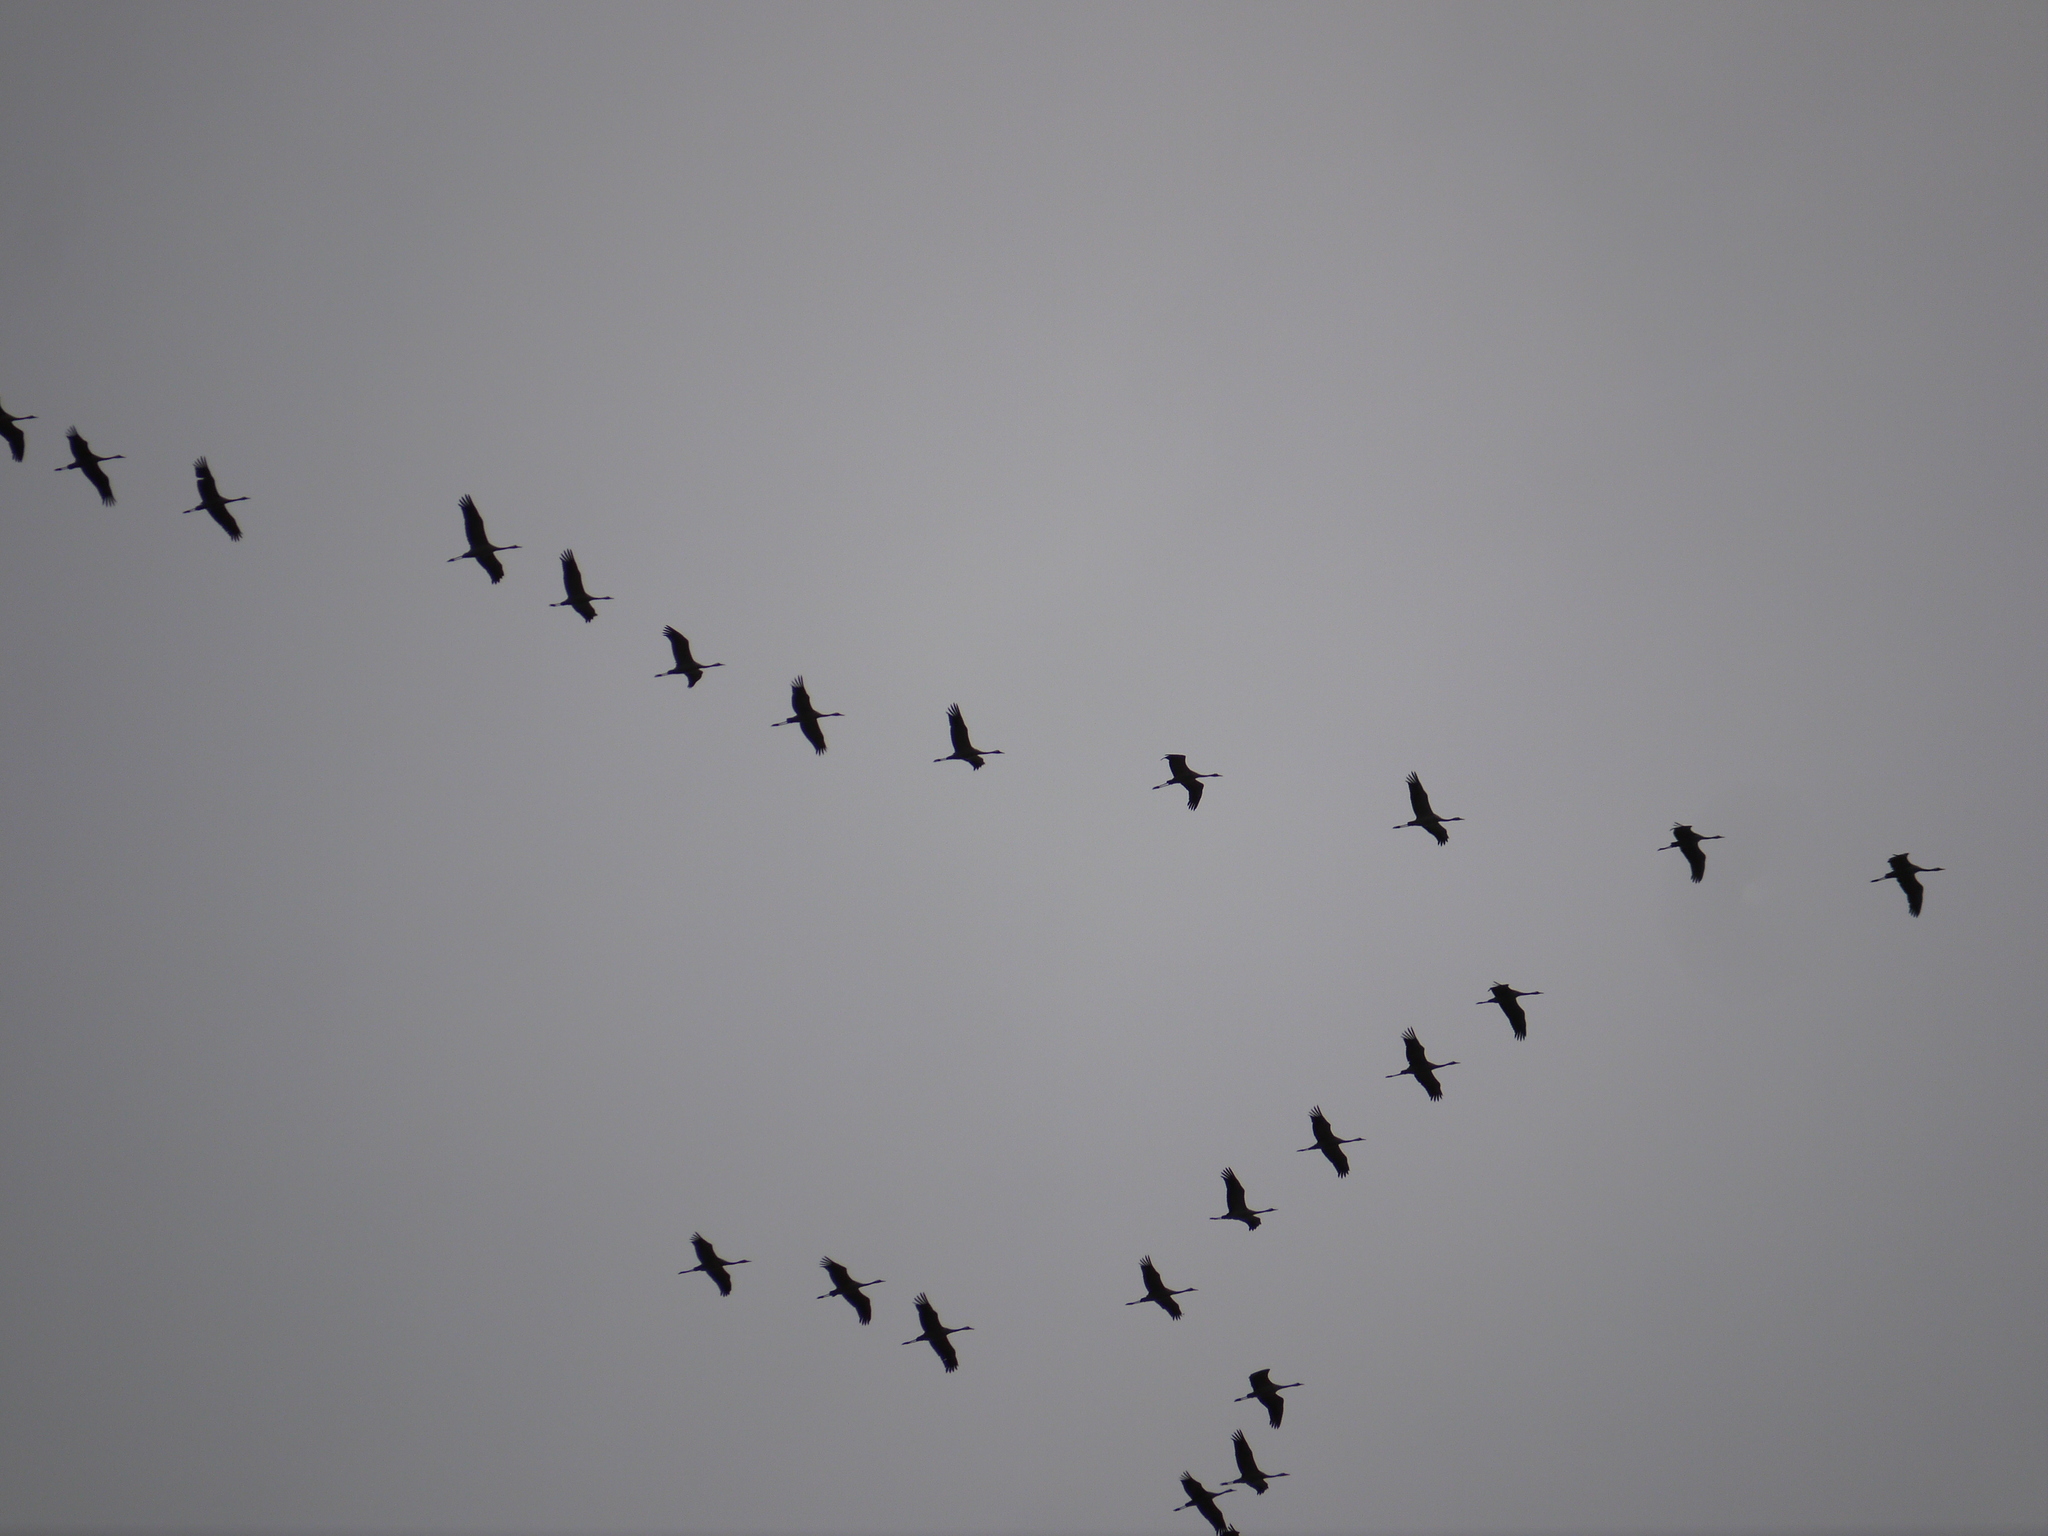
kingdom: Animalia
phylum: Chordata
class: Aves
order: Gruiformes
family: Gruidae
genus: Grus
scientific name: Grus grus
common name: Common crane
